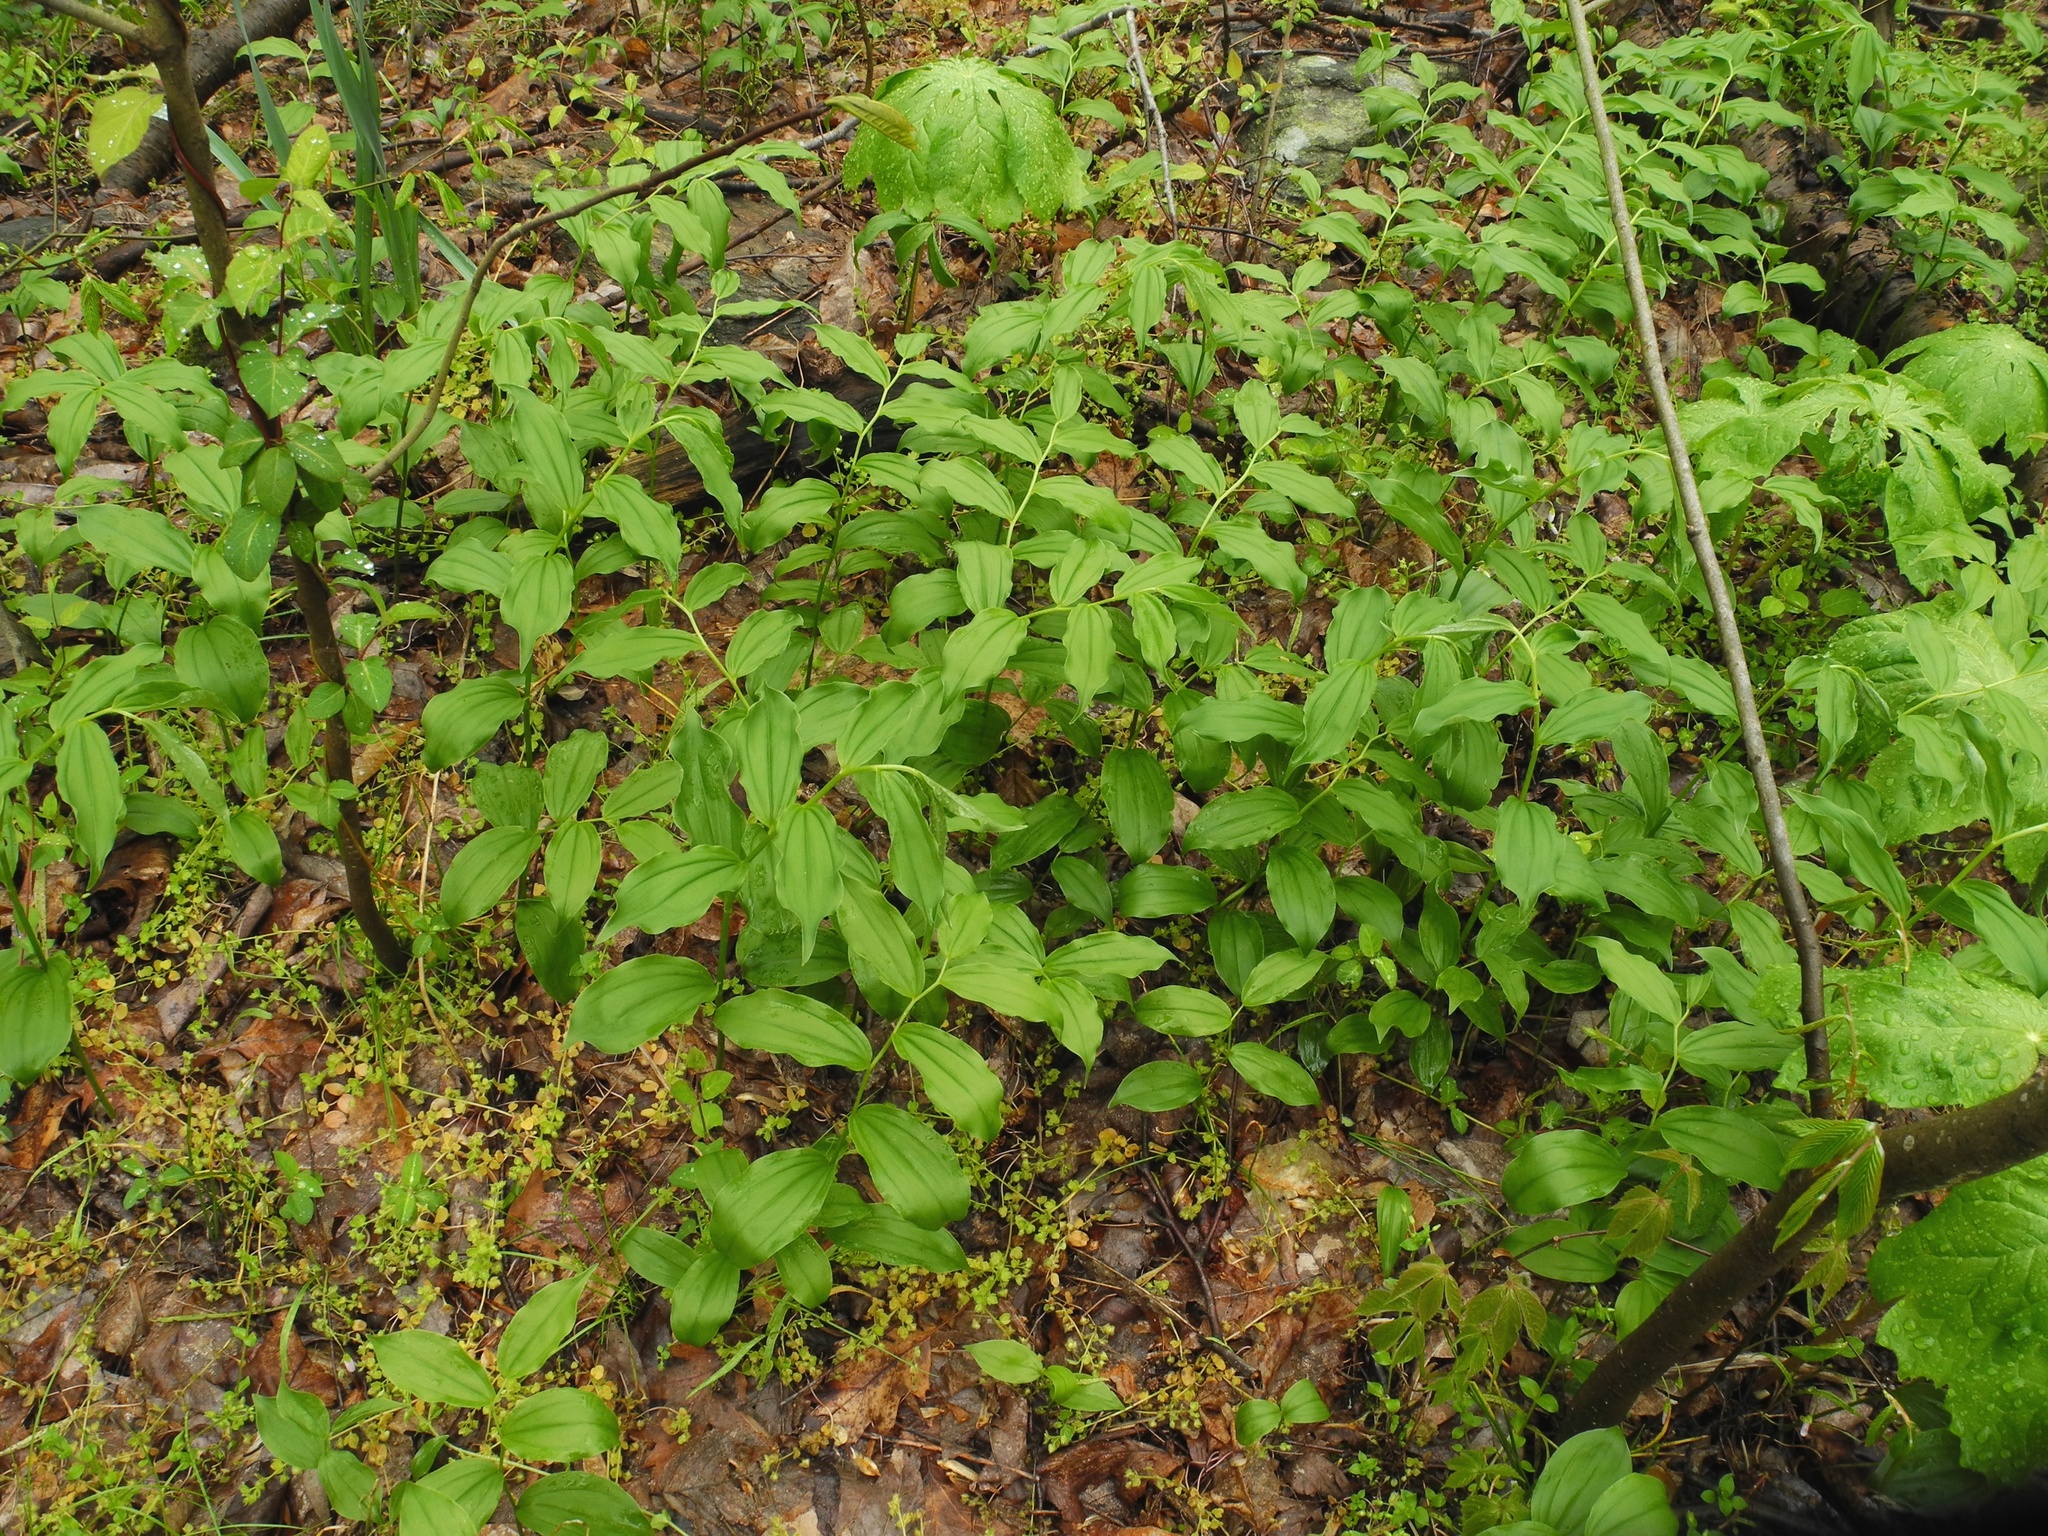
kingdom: Plantae
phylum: Tracheophyta
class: Liliopsida
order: Asparagales
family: Asparagaceae
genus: Maianthemum
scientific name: Maianthemum racemosum
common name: False spikenard
